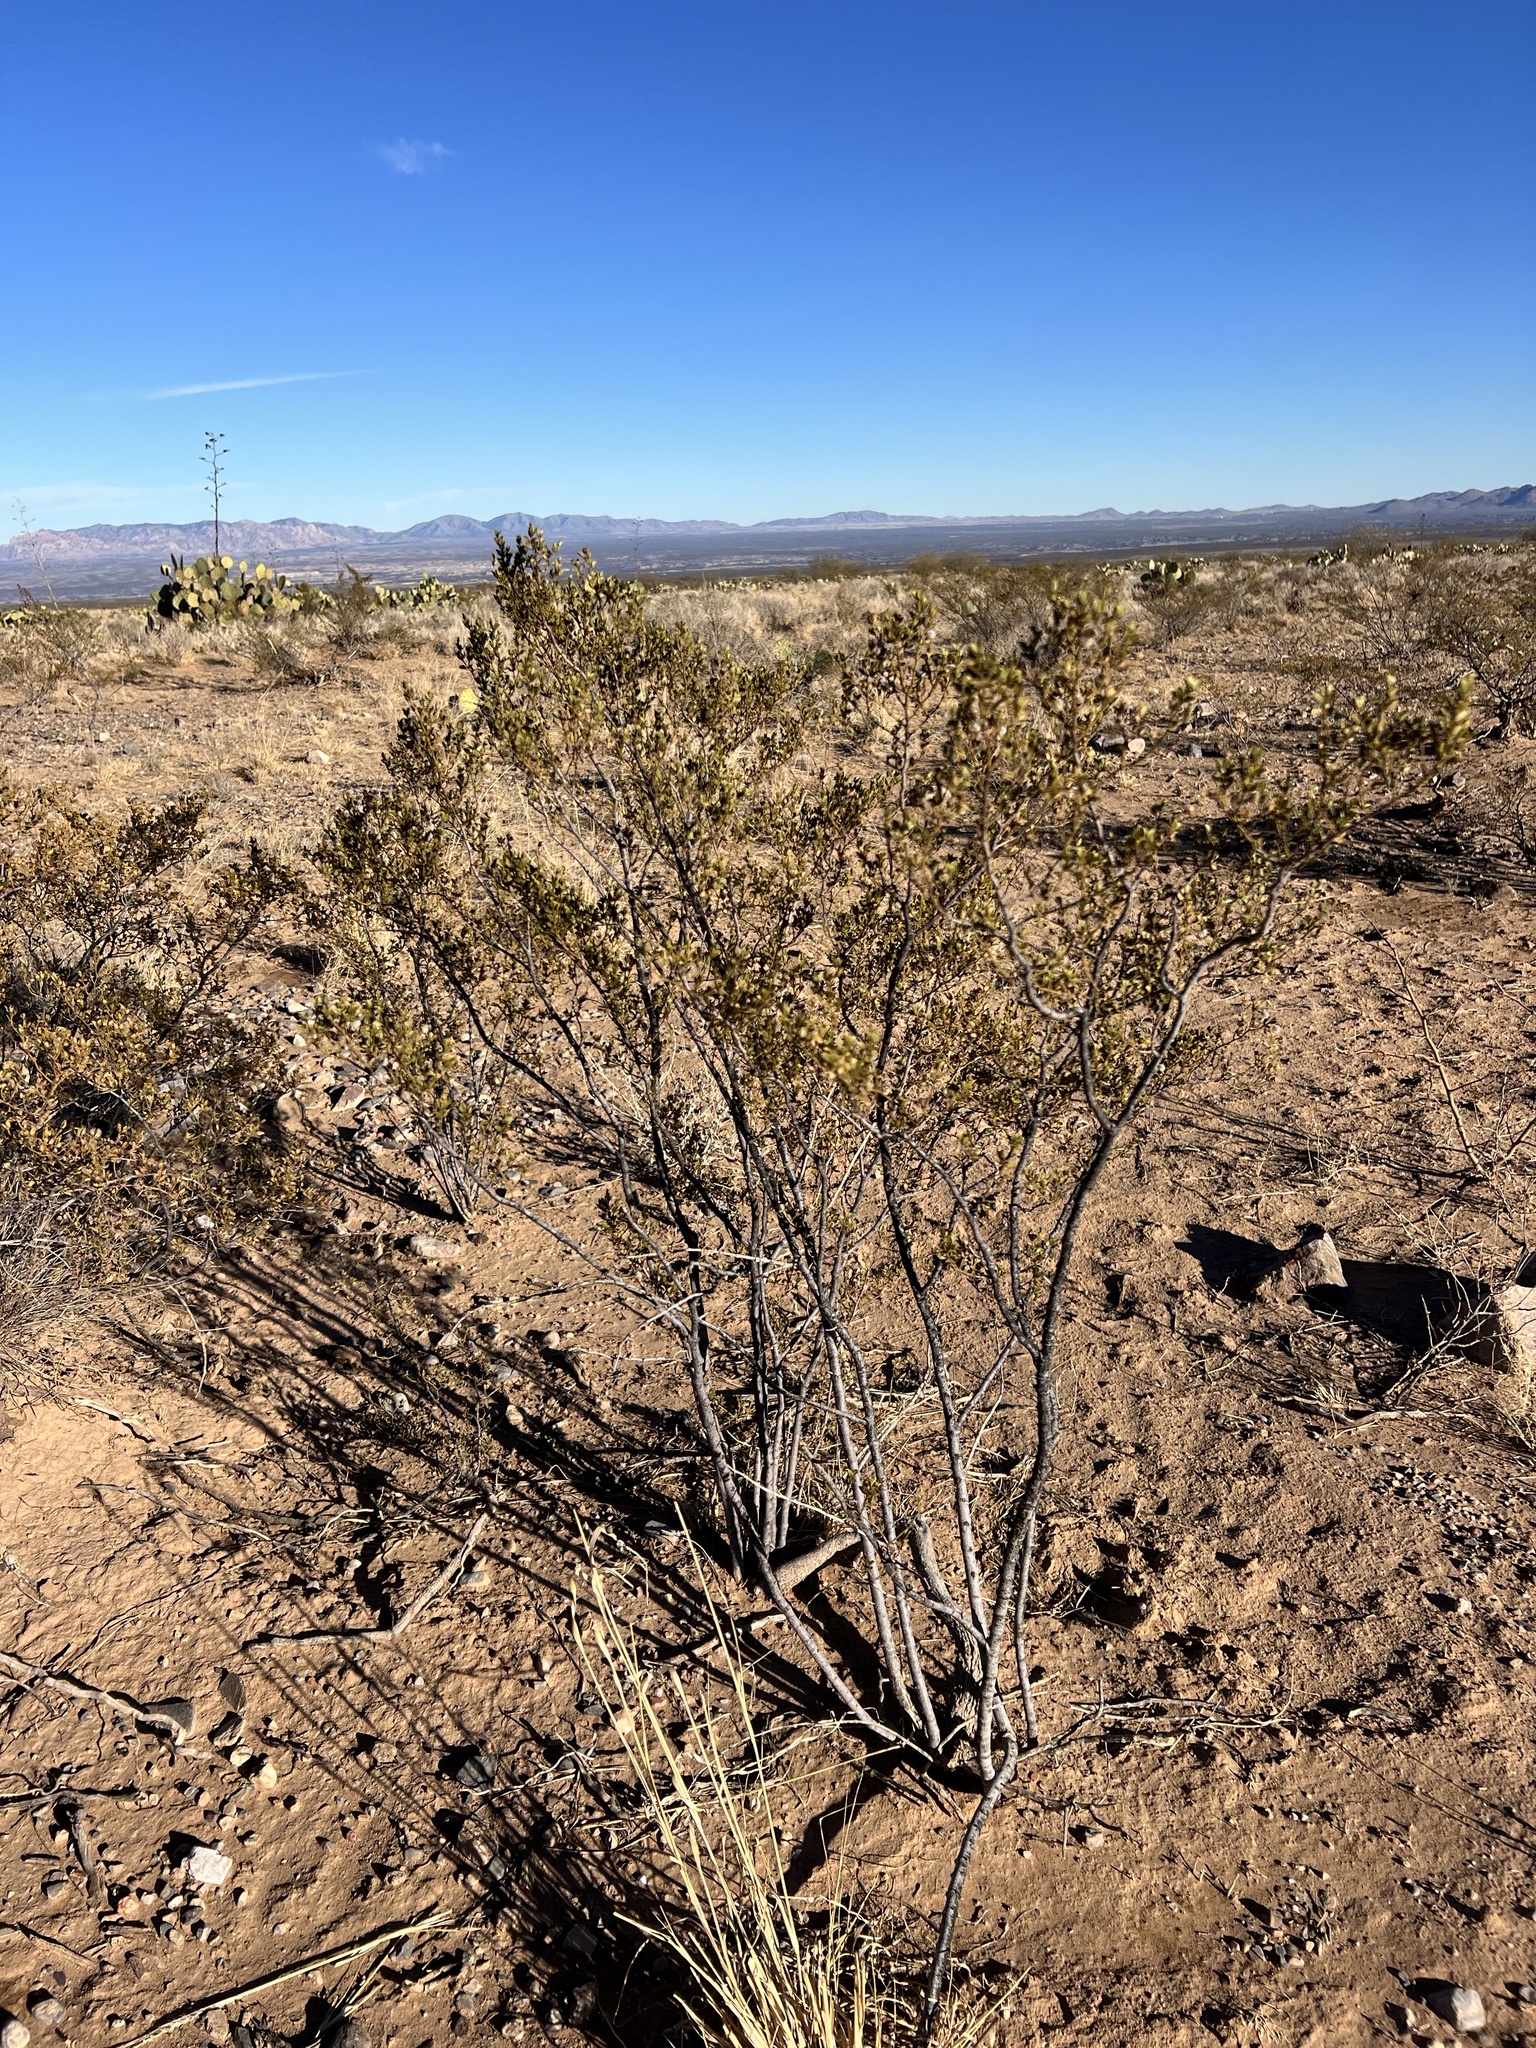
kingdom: Plantae
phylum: Tracheophyta
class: Magnoliopsida
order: Zygophyllales
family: Zygophyllaceae
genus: Larrea
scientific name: Larrea tridentata
